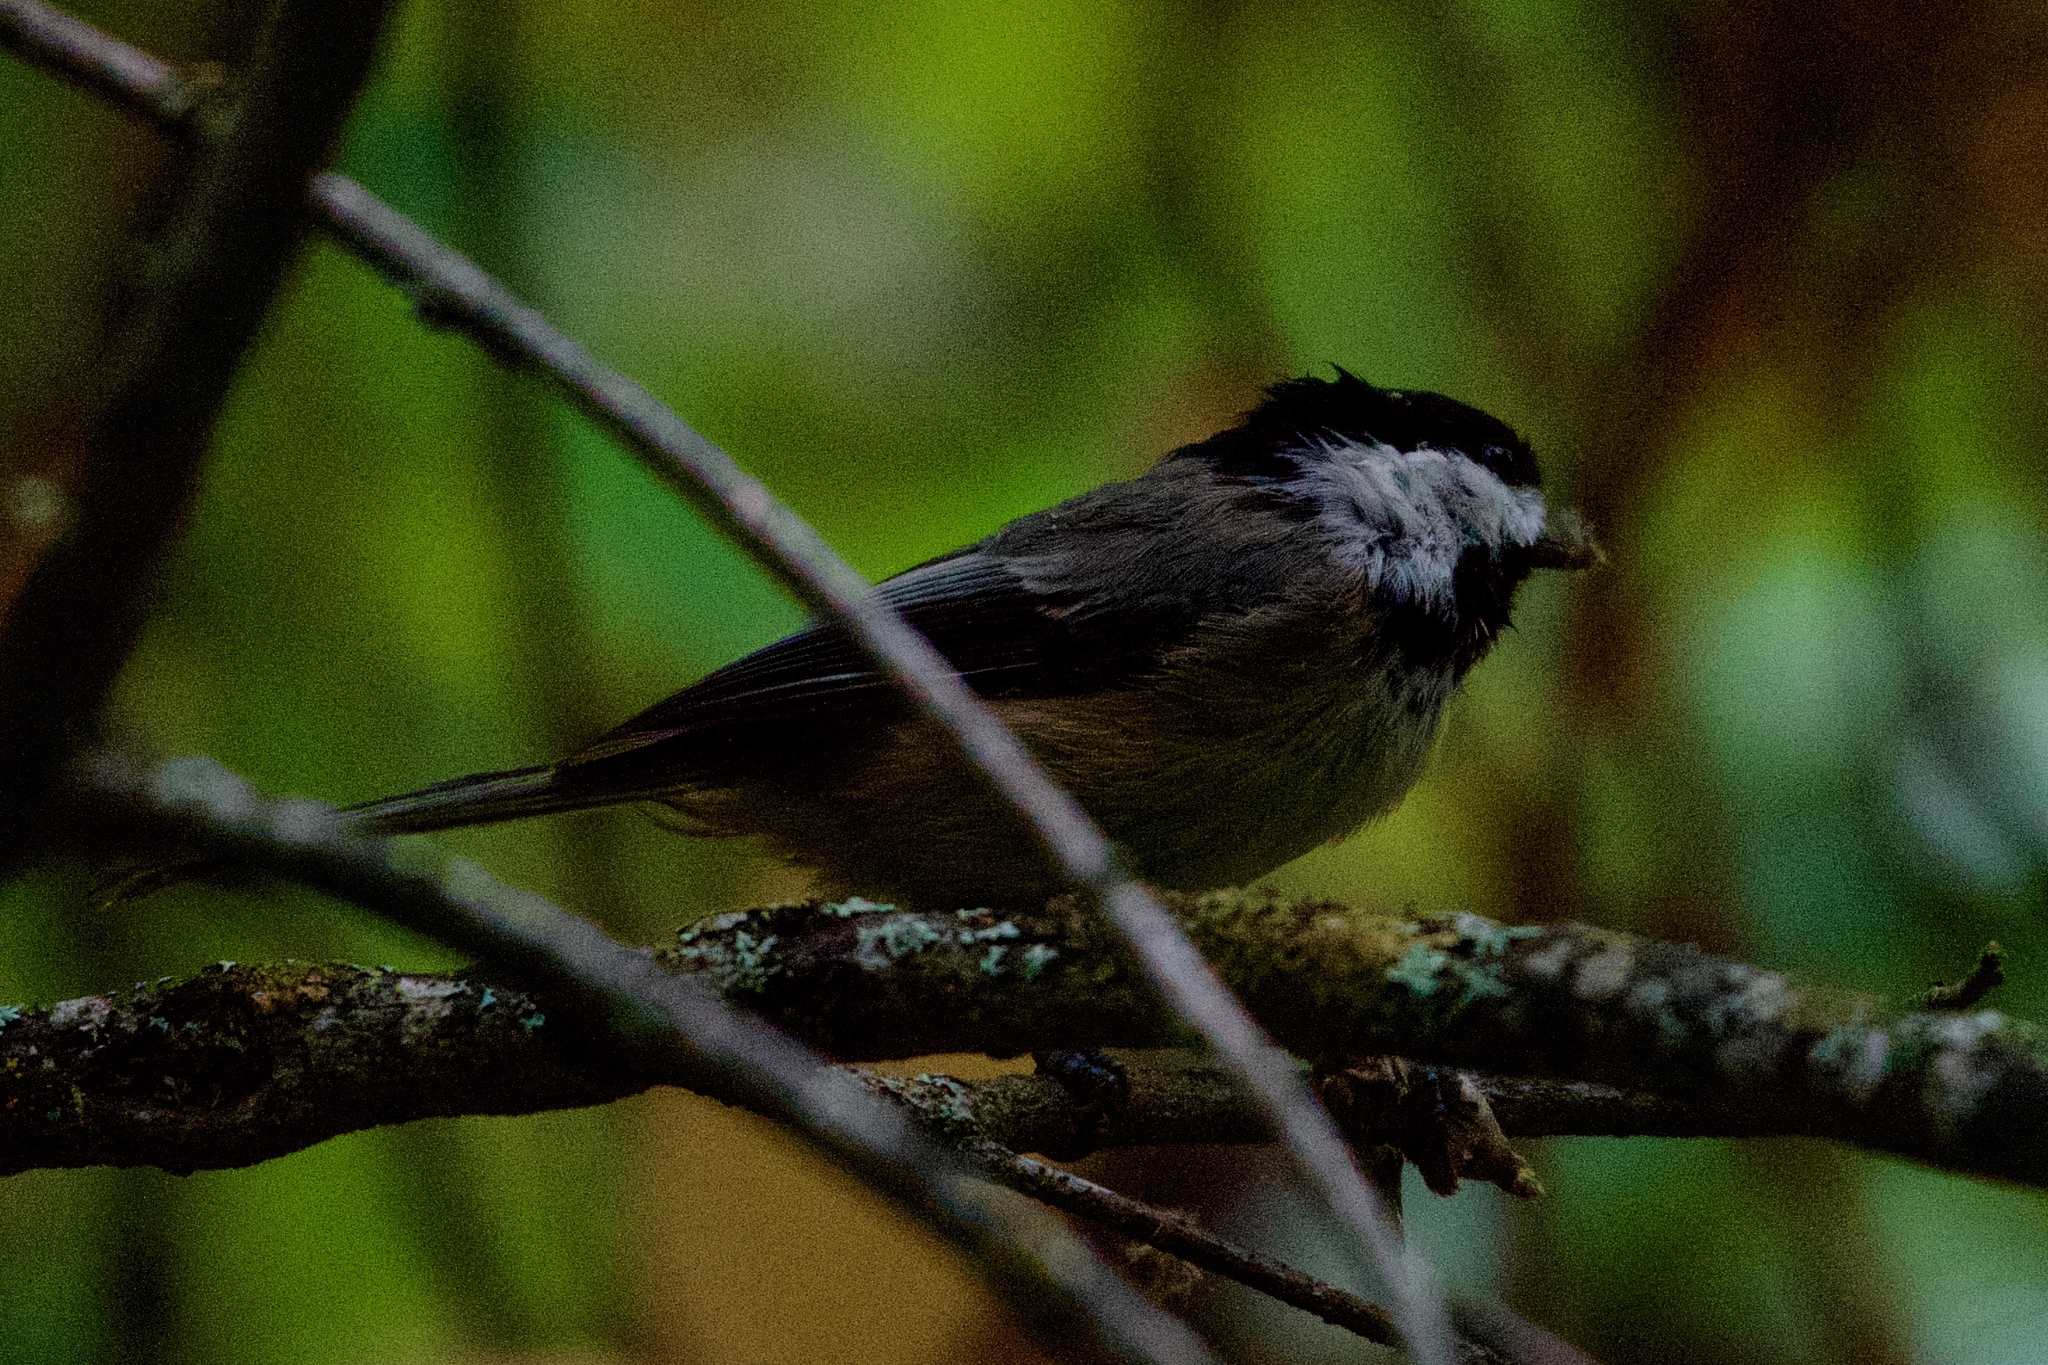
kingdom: Animalia
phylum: Chordata
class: Aves
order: Passeriformes
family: Paridae
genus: Poecile
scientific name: Poecile atricapillus
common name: Black-capped chickadee
